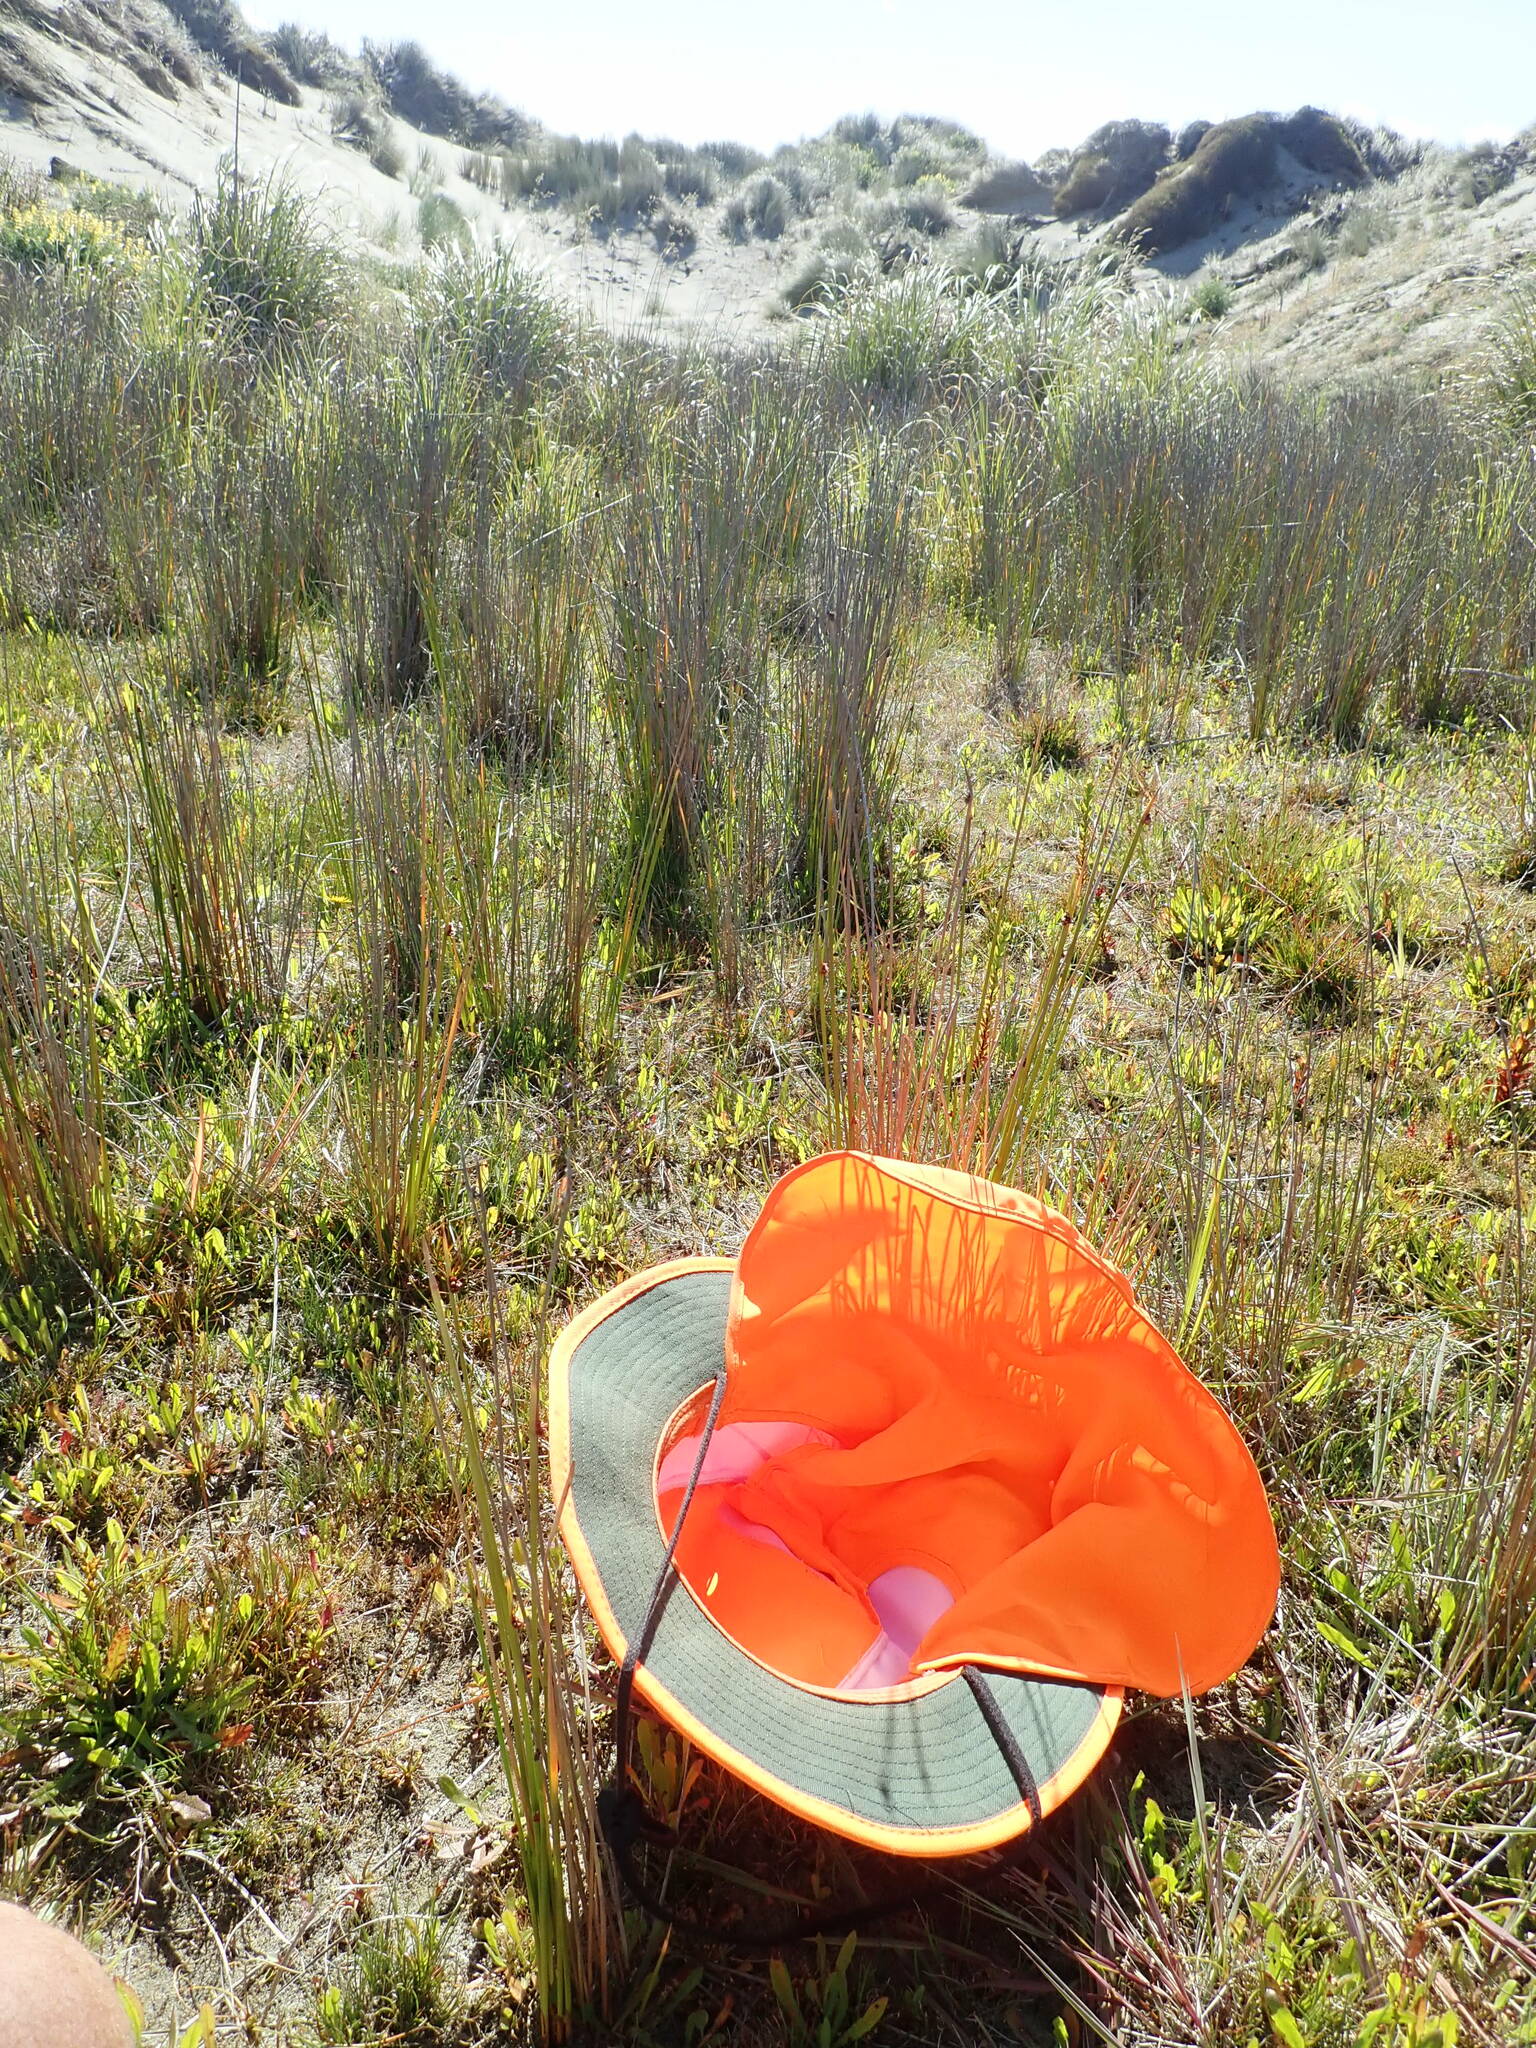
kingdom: Plantae
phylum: Tracheophyta
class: Magnoliopsida
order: Asterales
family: Campanulaceae
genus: Lobelia
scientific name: Lobelia anceps
